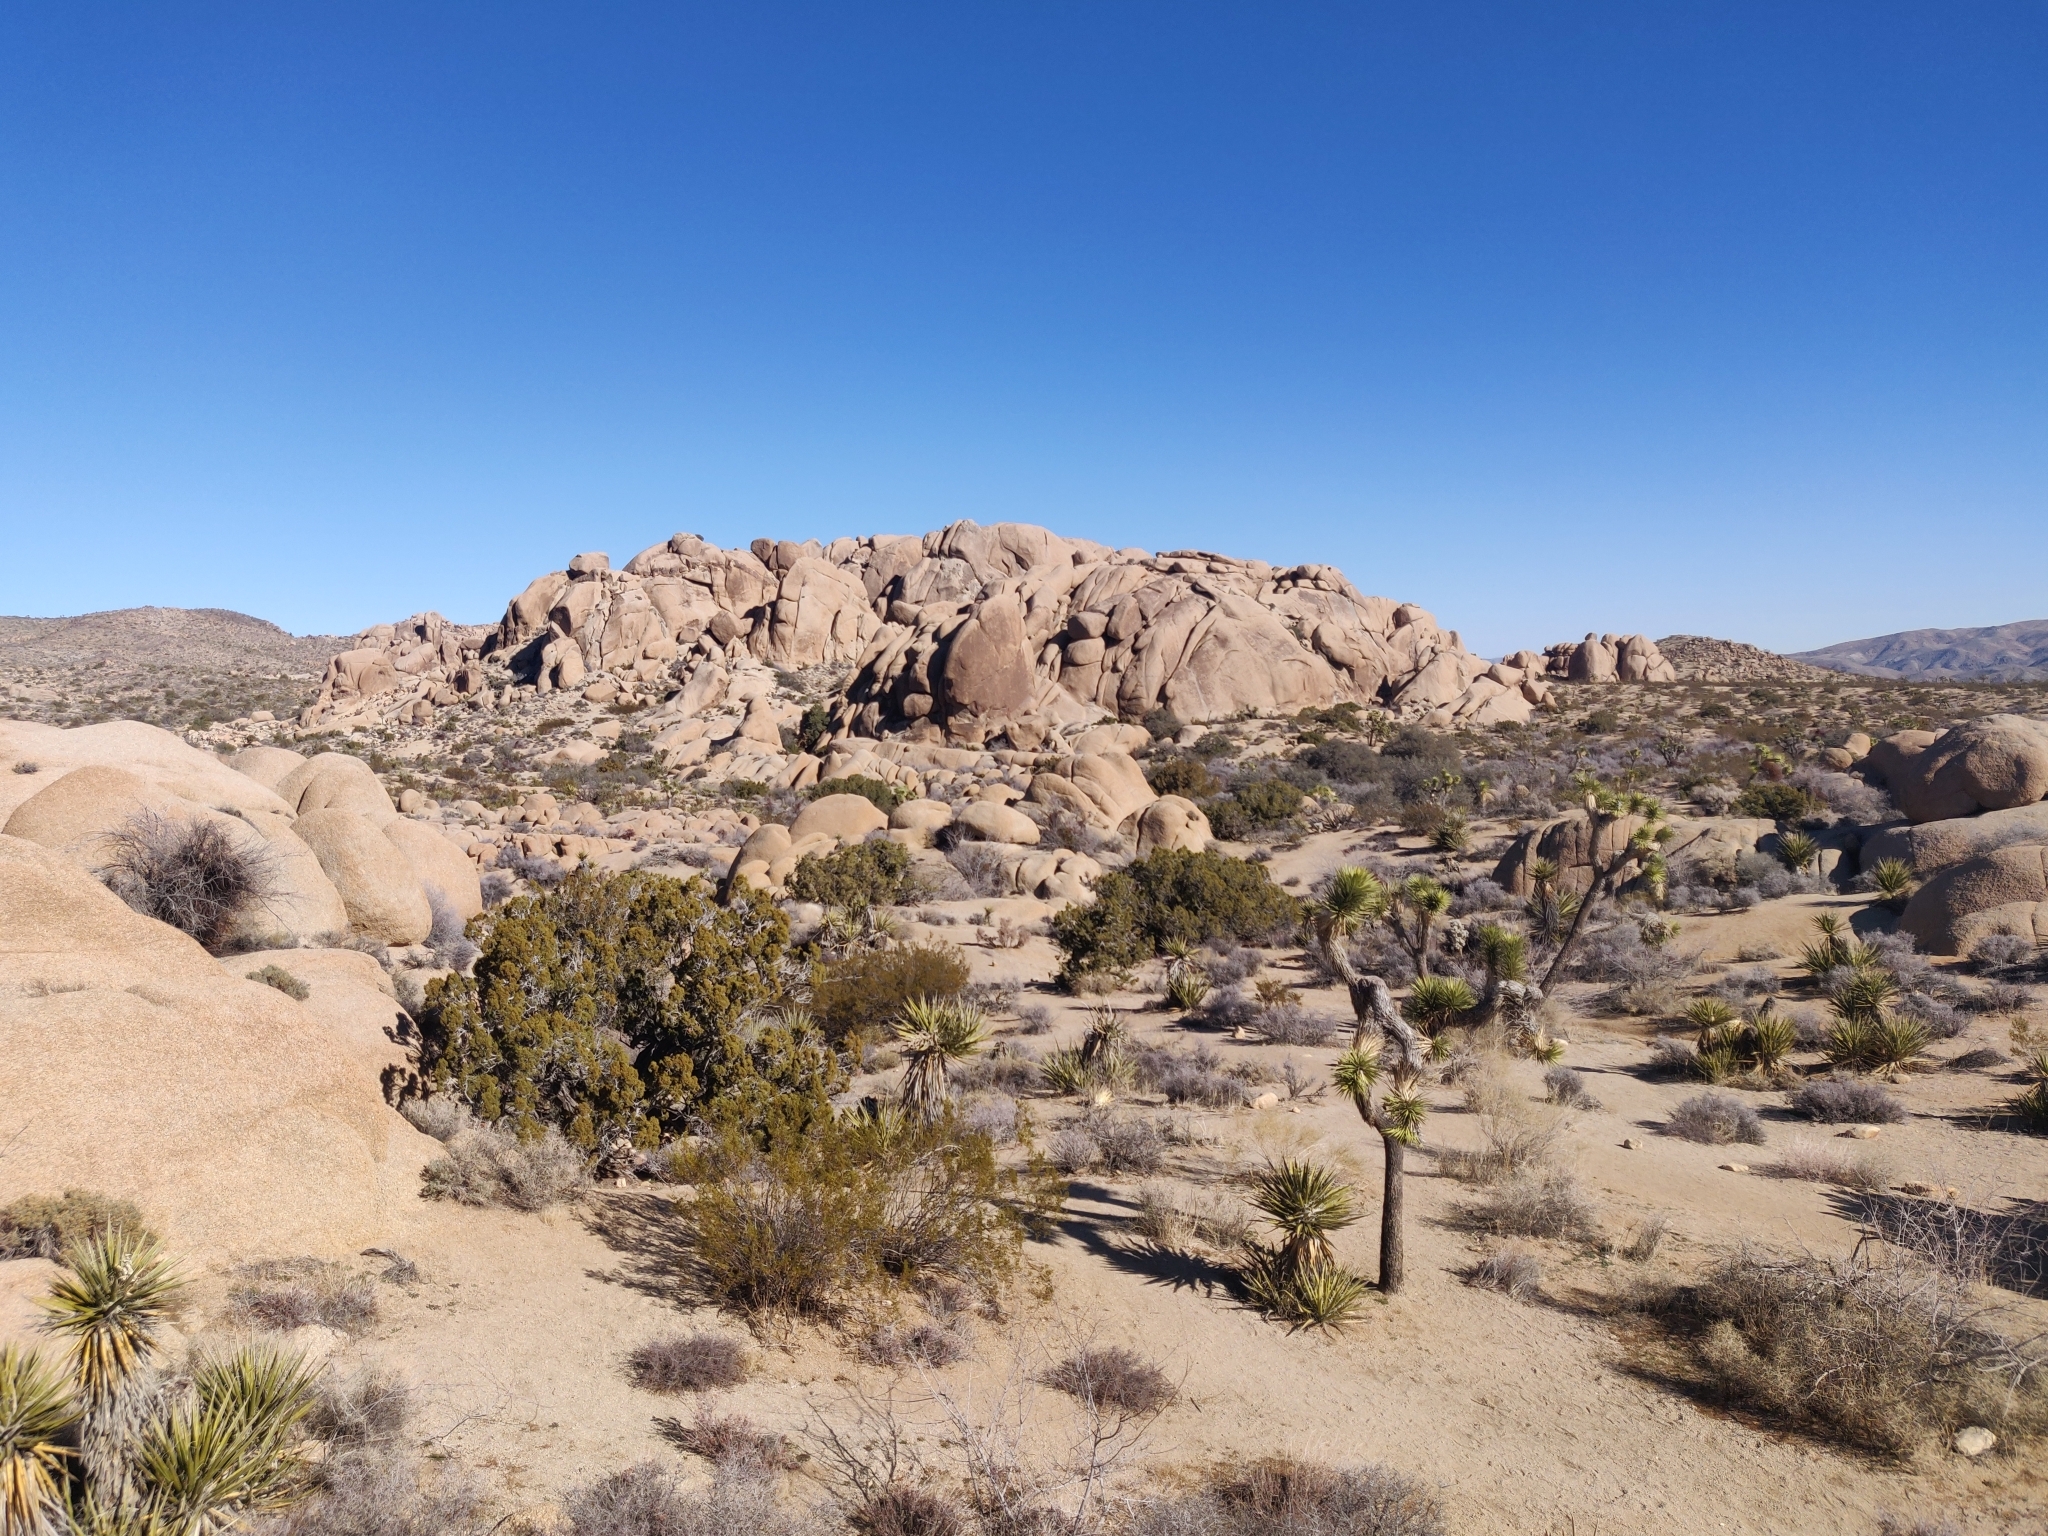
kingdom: Plantae
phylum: Tracheophyta
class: Liliopsida
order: Asparagales
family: Asparagaceae
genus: Yucca
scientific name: Yucca brevifolia
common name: Joshua tree
